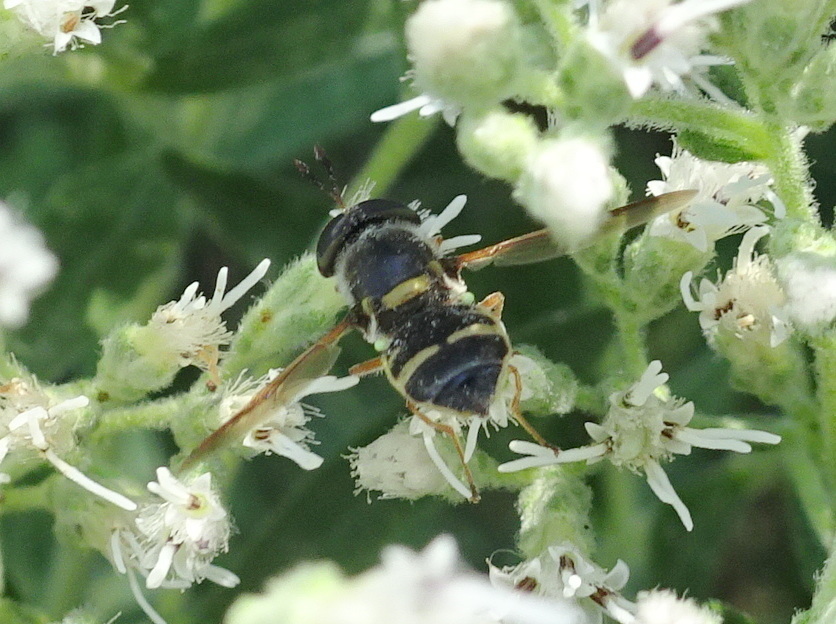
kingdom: Animalia
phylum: Arthropoda
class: Insecta
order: Diptera
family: Stratiomyidae
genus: Hoplitimyia
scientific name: Hoplitimyia constans
